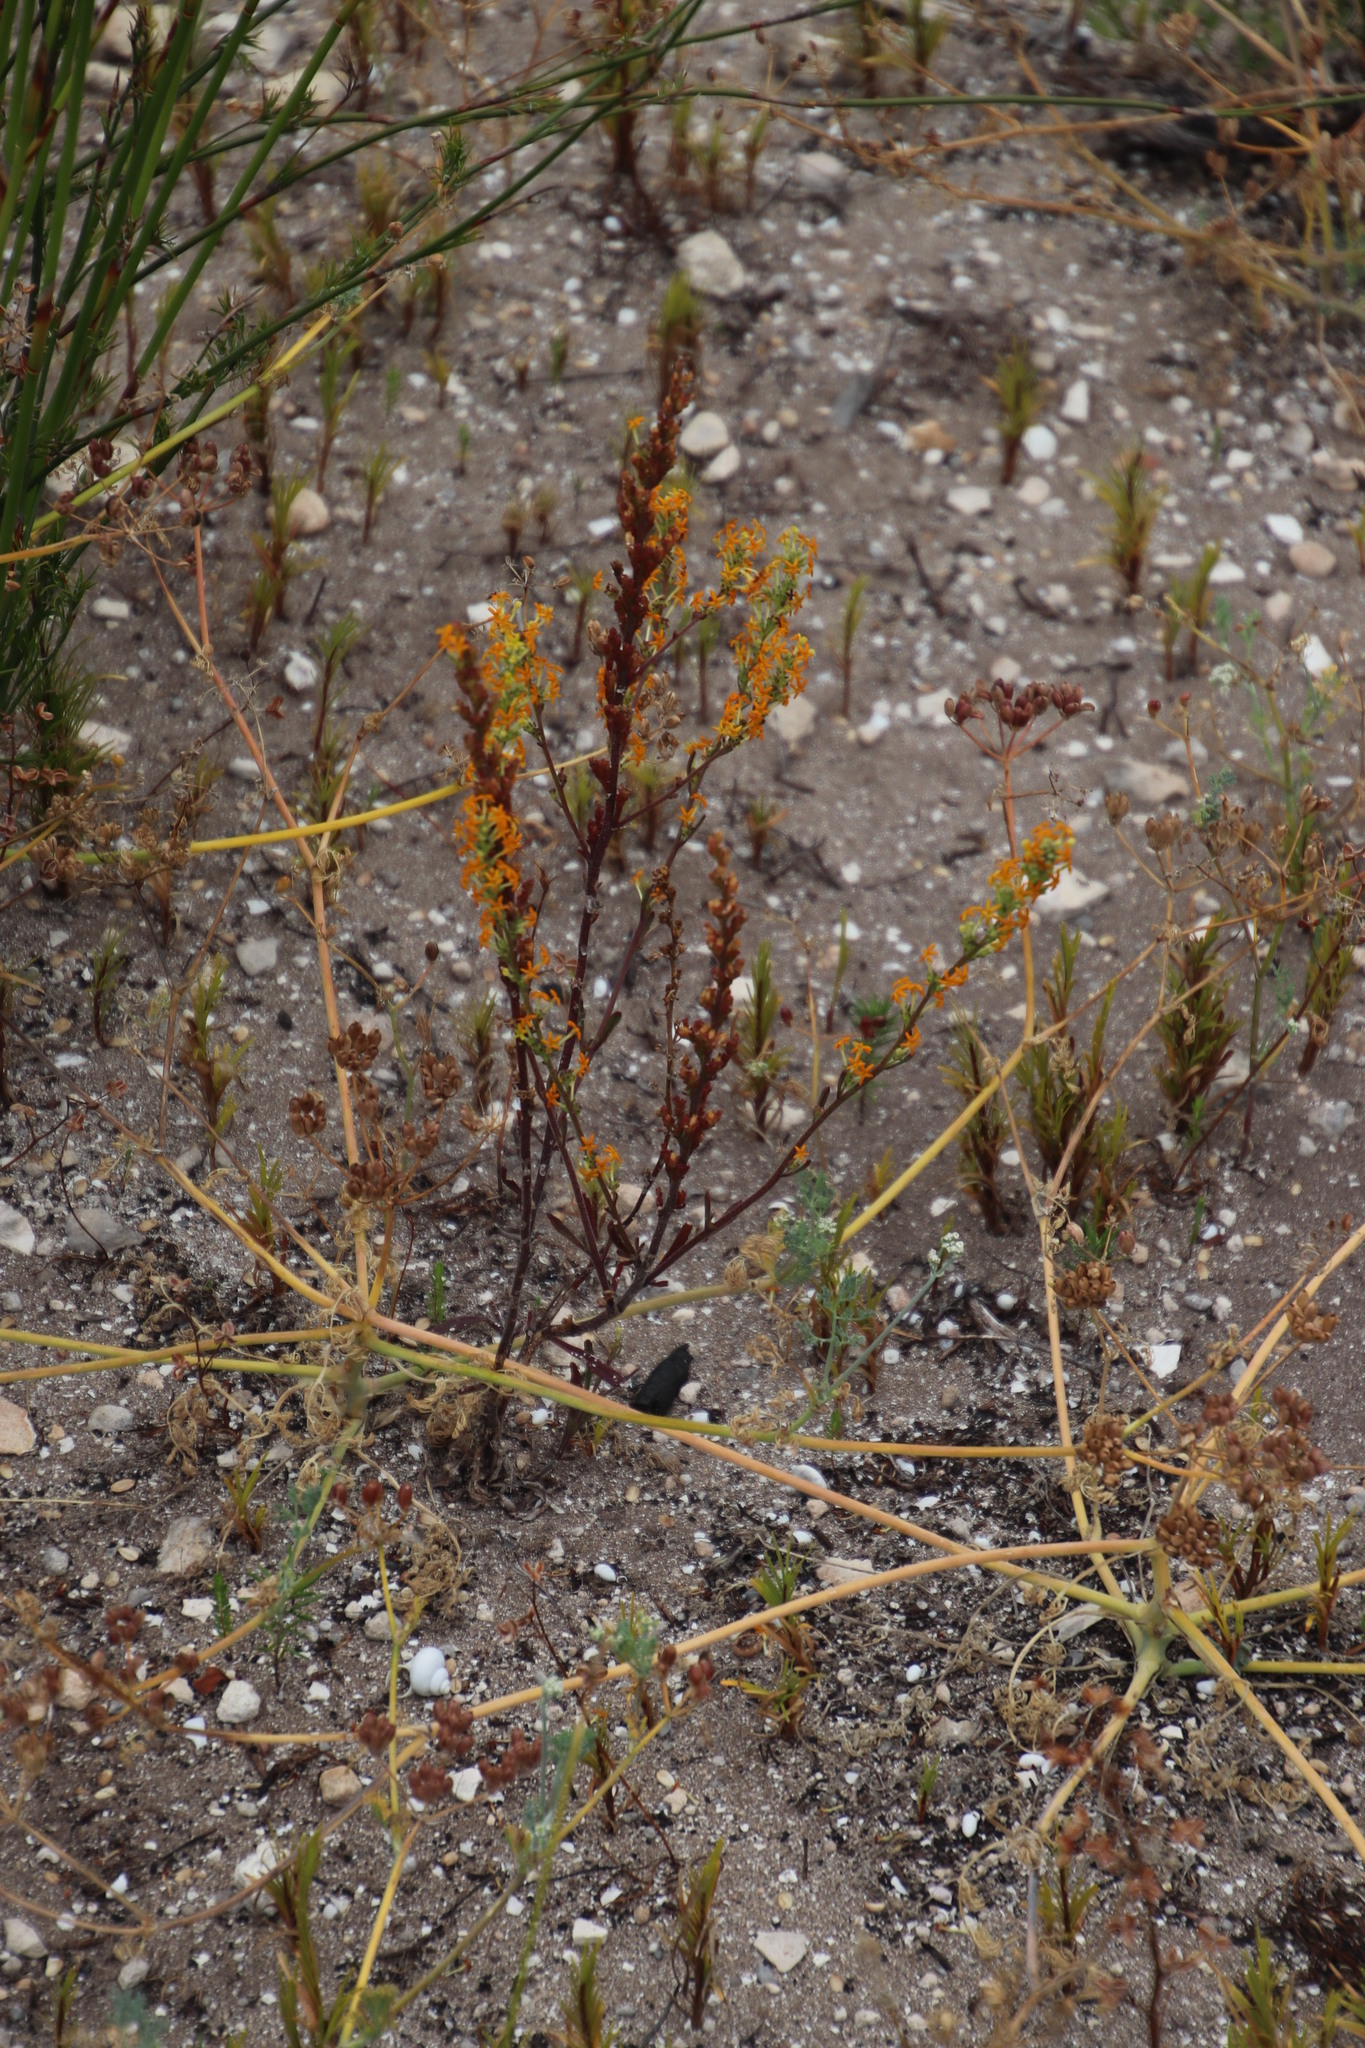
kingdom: Plantae
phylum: Tracheophyta
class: Magnoliopsida
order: Lamiales
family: Scrophulariaceae
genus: Manulea
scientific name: Manulea rubra
